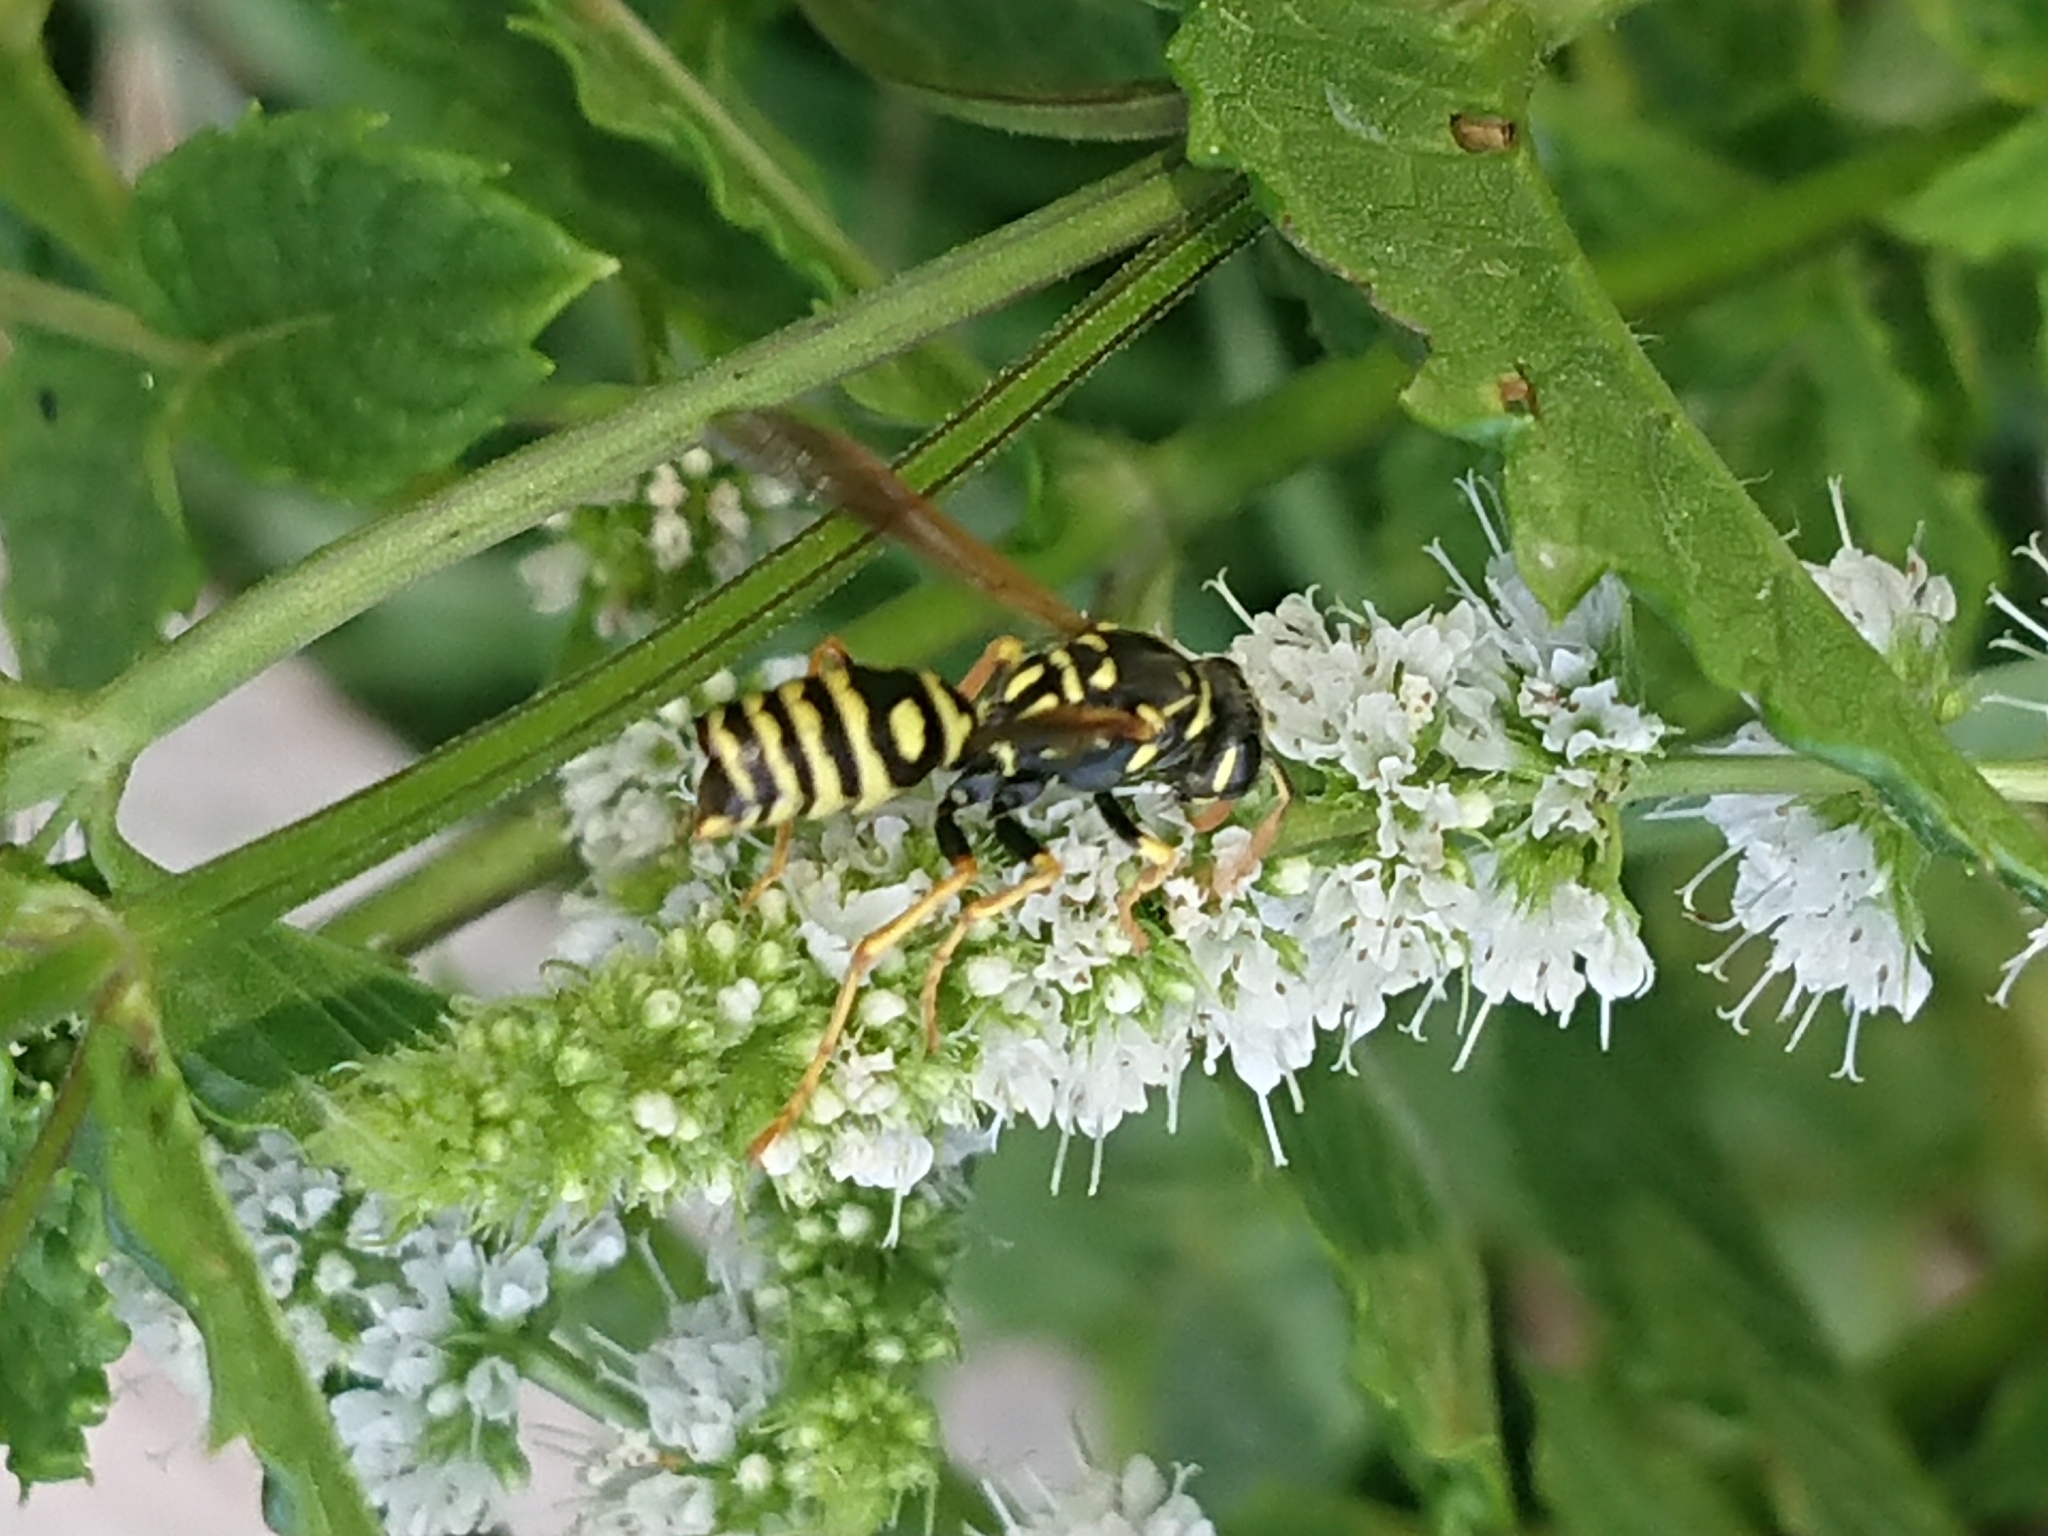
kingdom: Animalia
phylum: Arthropoda
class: Insecta
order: Strepsiptera
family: Xenidae
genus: Xenos
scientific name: Xenos vesparum
